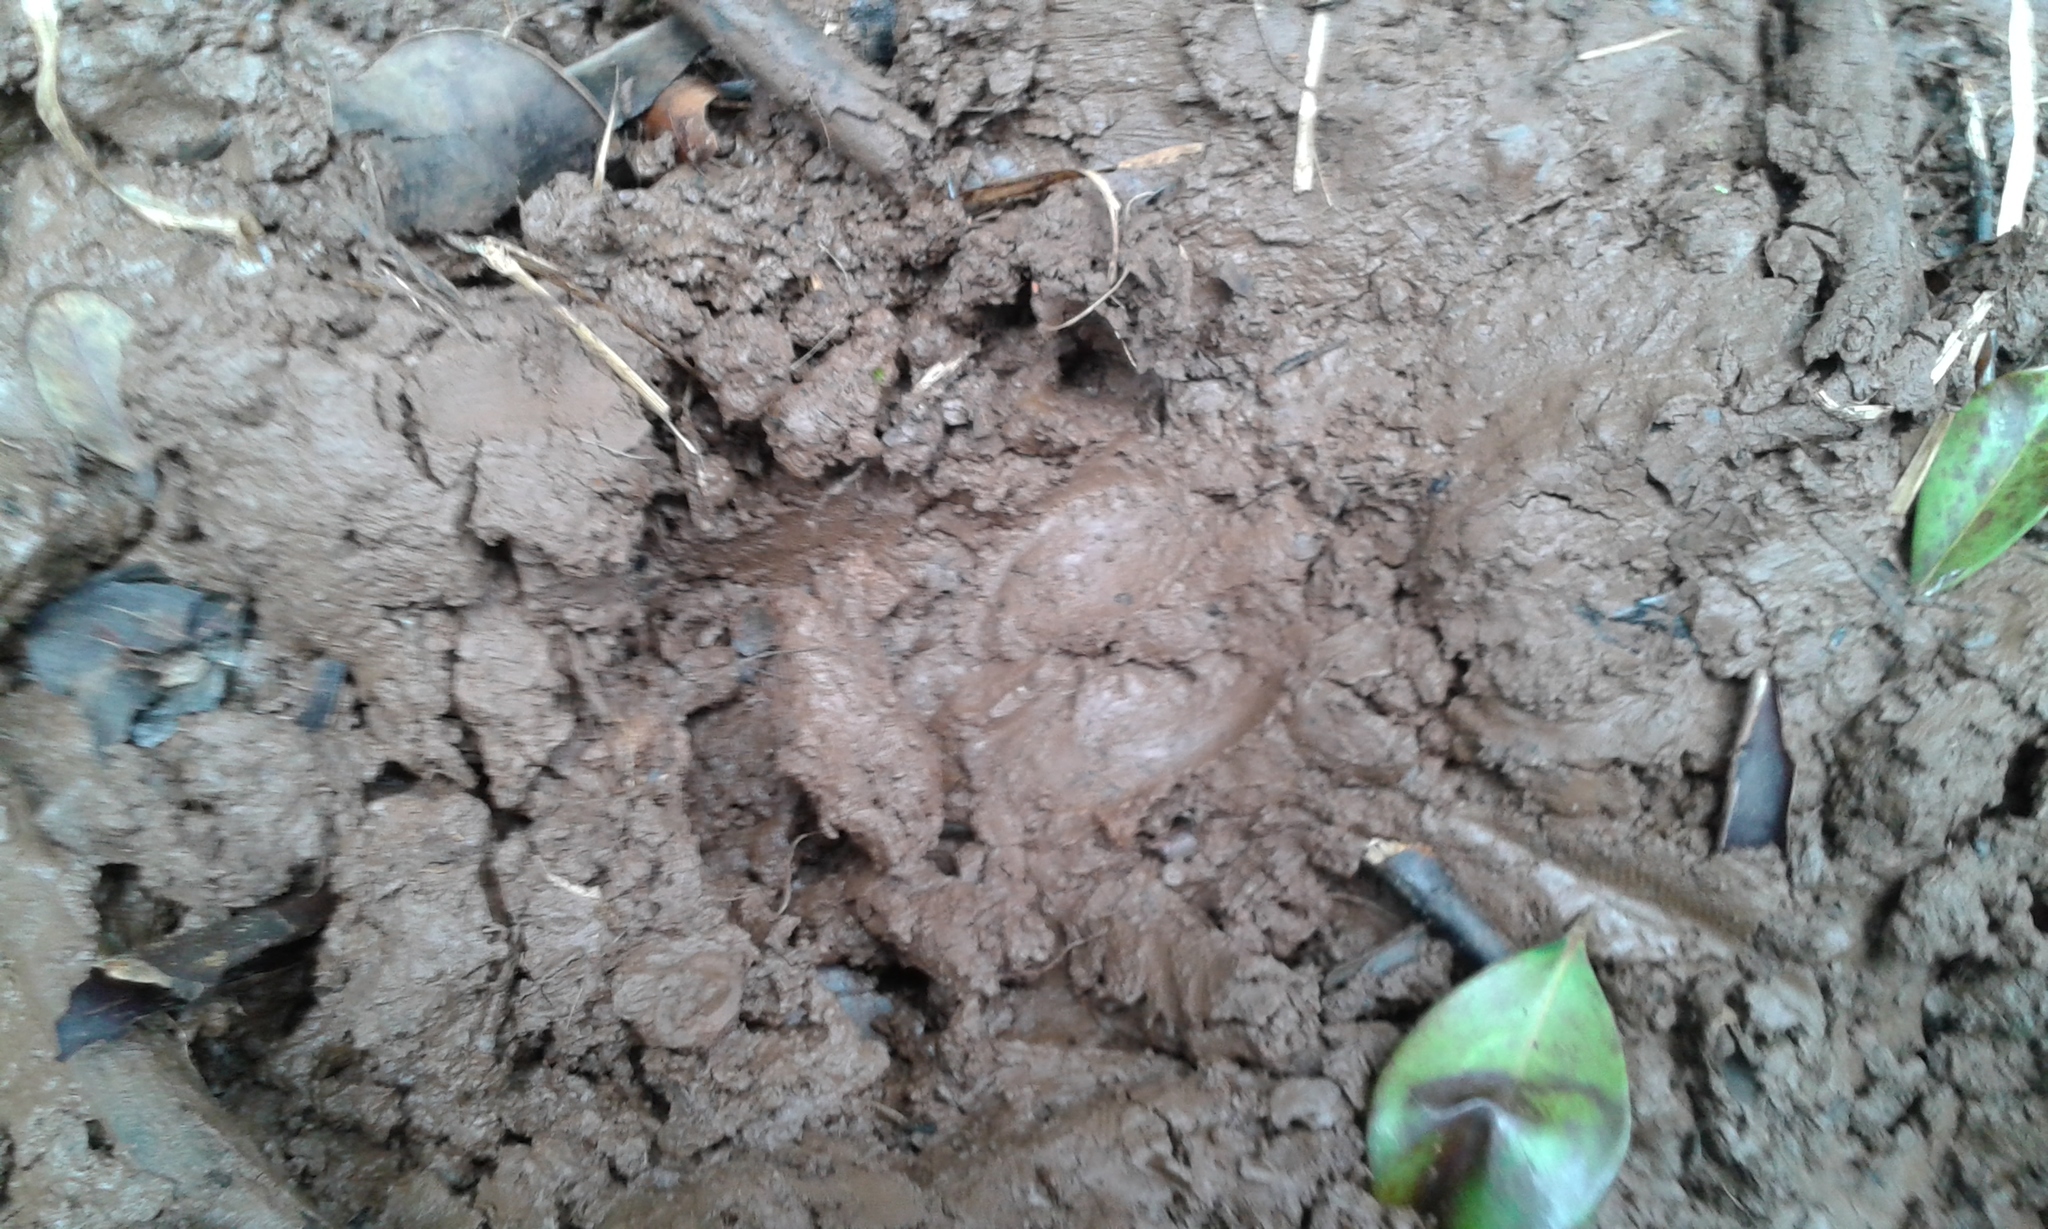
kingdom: Animalia
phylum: Chordata
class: Mammalia
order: Artiodactyla
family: Suidae
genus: Sus
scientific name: Sus scrofa
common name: Wild boar
